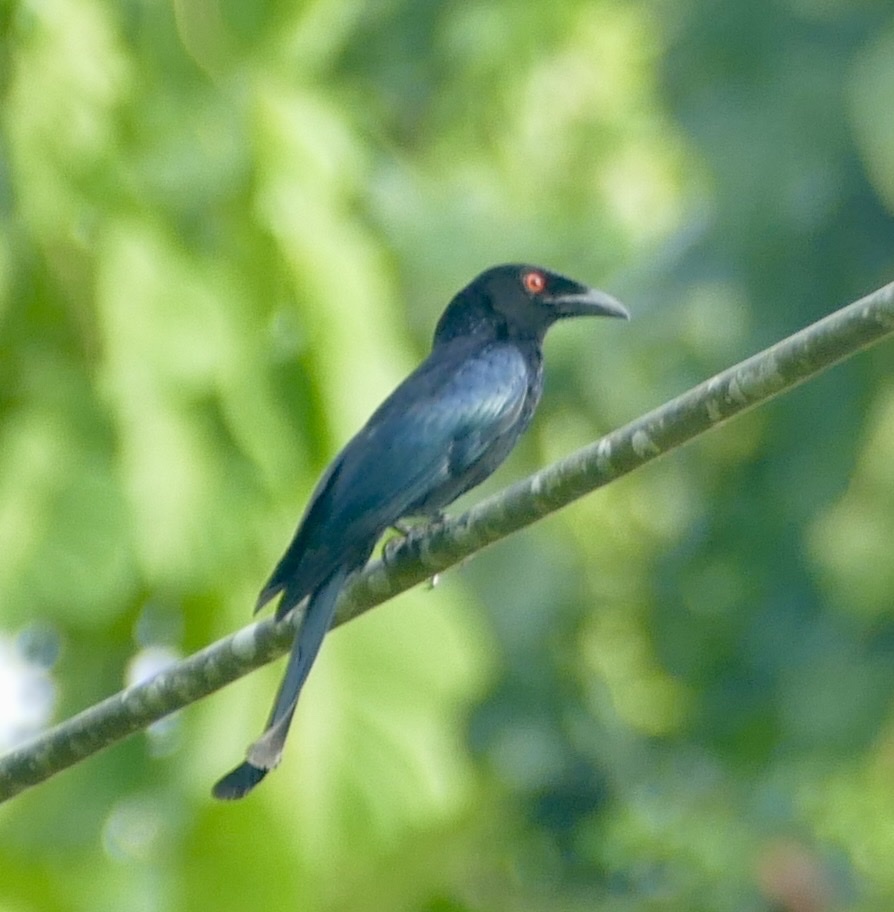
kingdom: Animalia
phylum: Chordata
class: Aves
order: Passeriformes
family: Dicruridae
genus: Dicrurus
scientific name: Dicrurus bracteatus
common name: Spangled drongo
